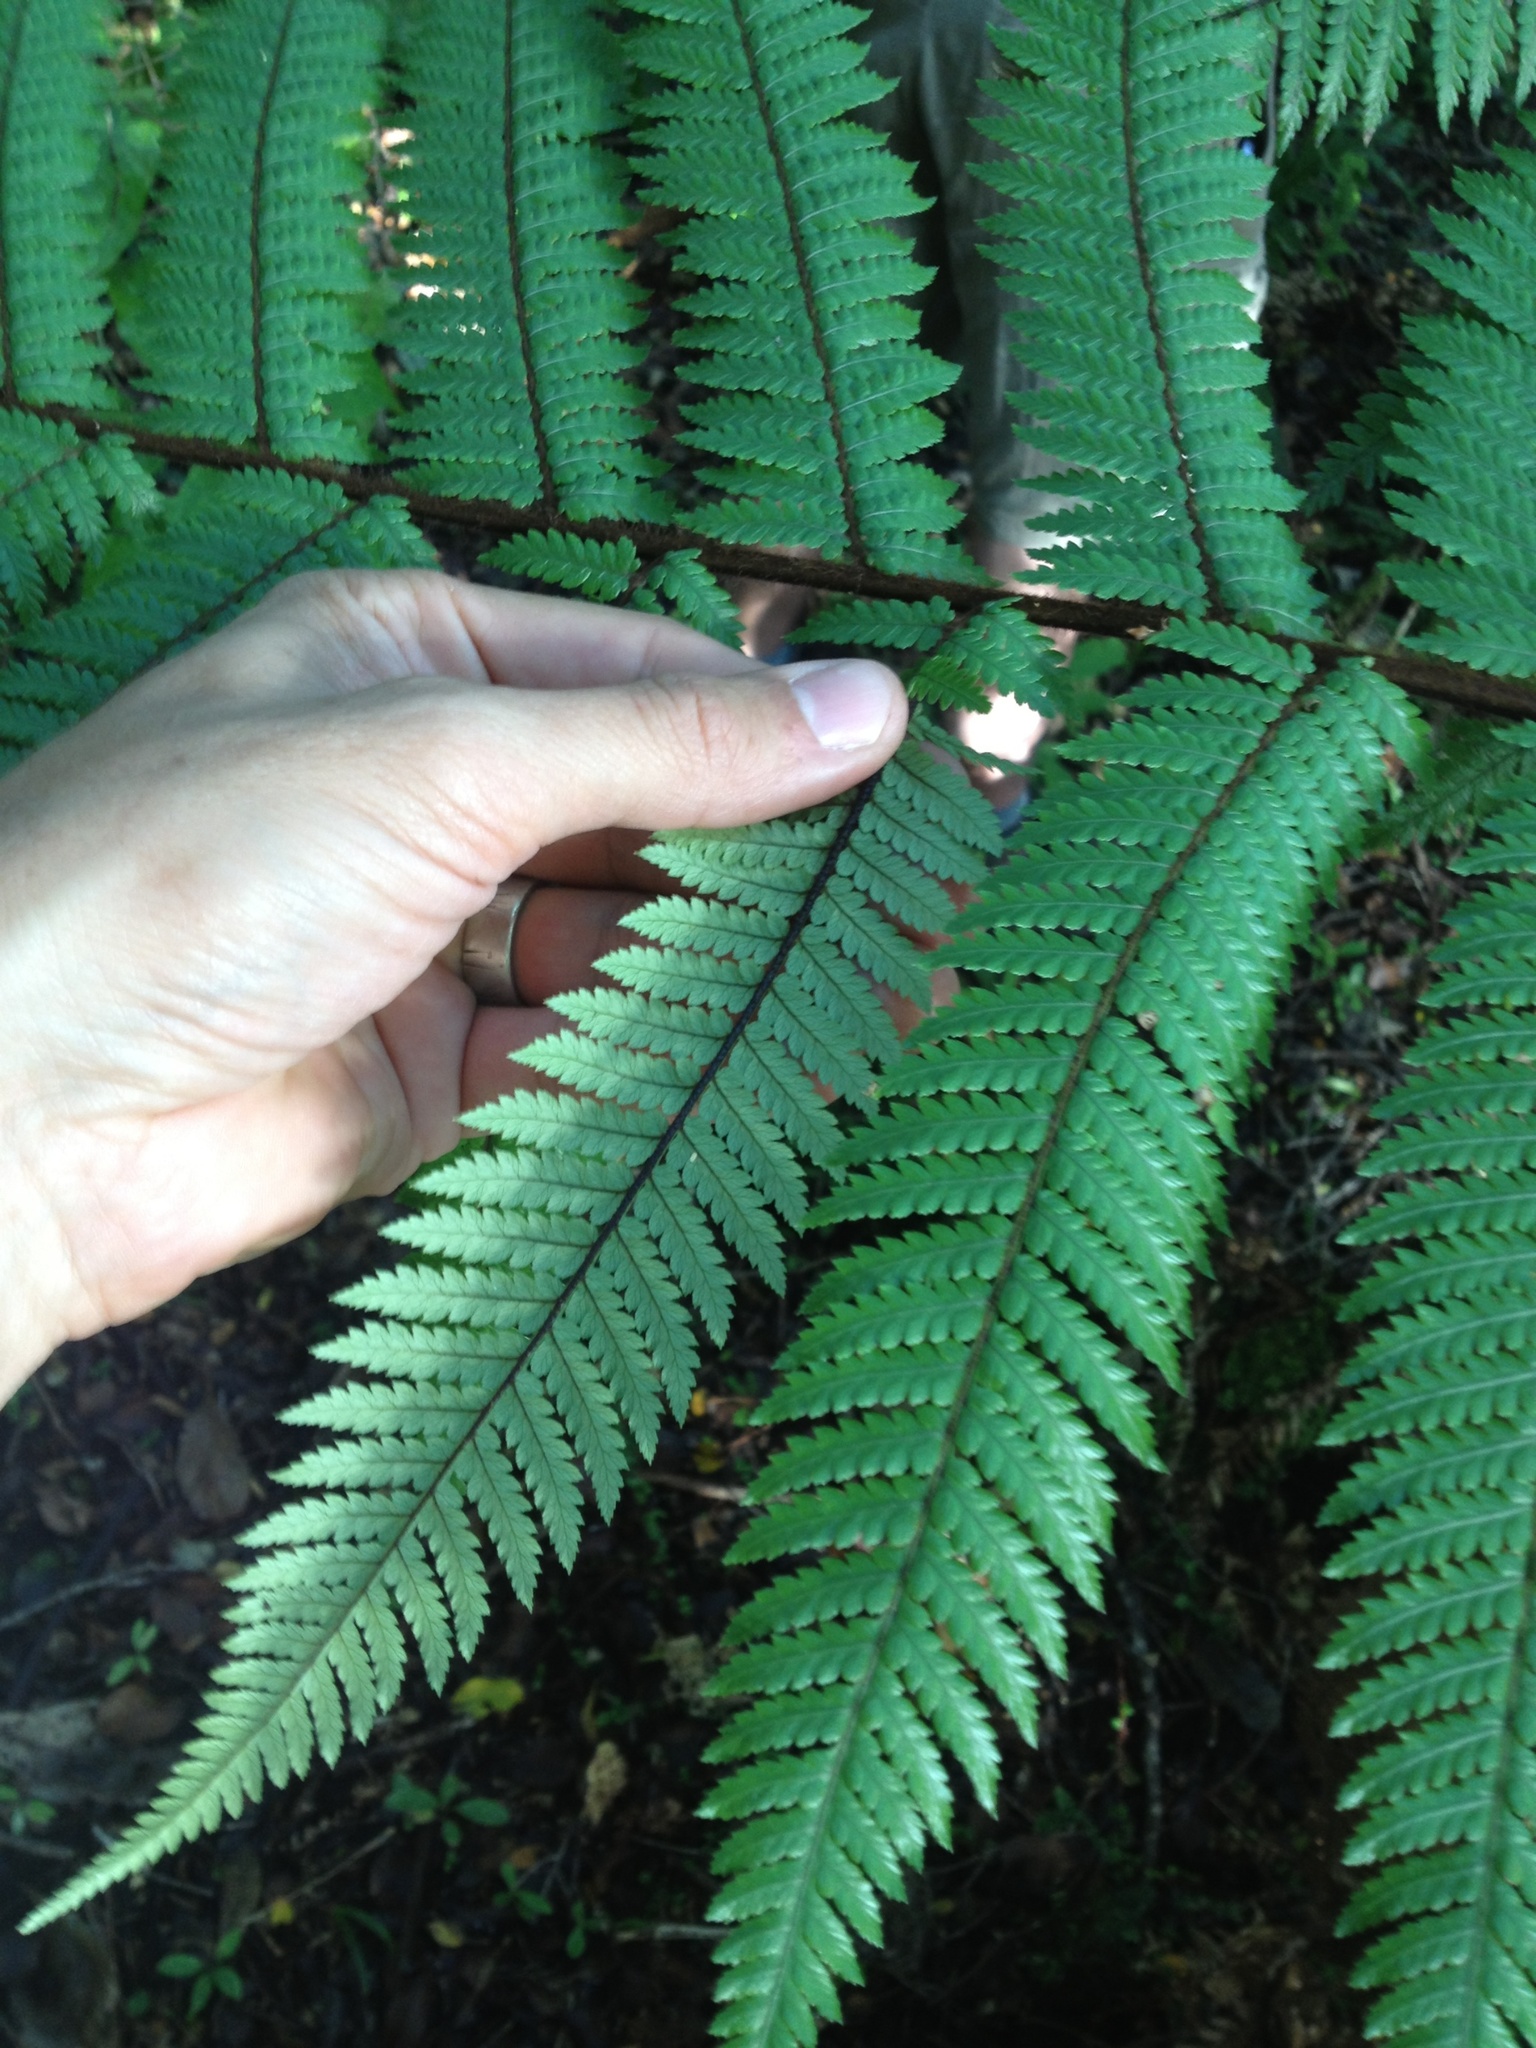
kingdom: Plantae
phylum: Tracheophyta
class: Polypodiopsida
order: Cyatheales
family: Dicksoniaceae
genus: Dicksonia
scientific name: Dicksonia squarrosa
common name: Hard treefern
